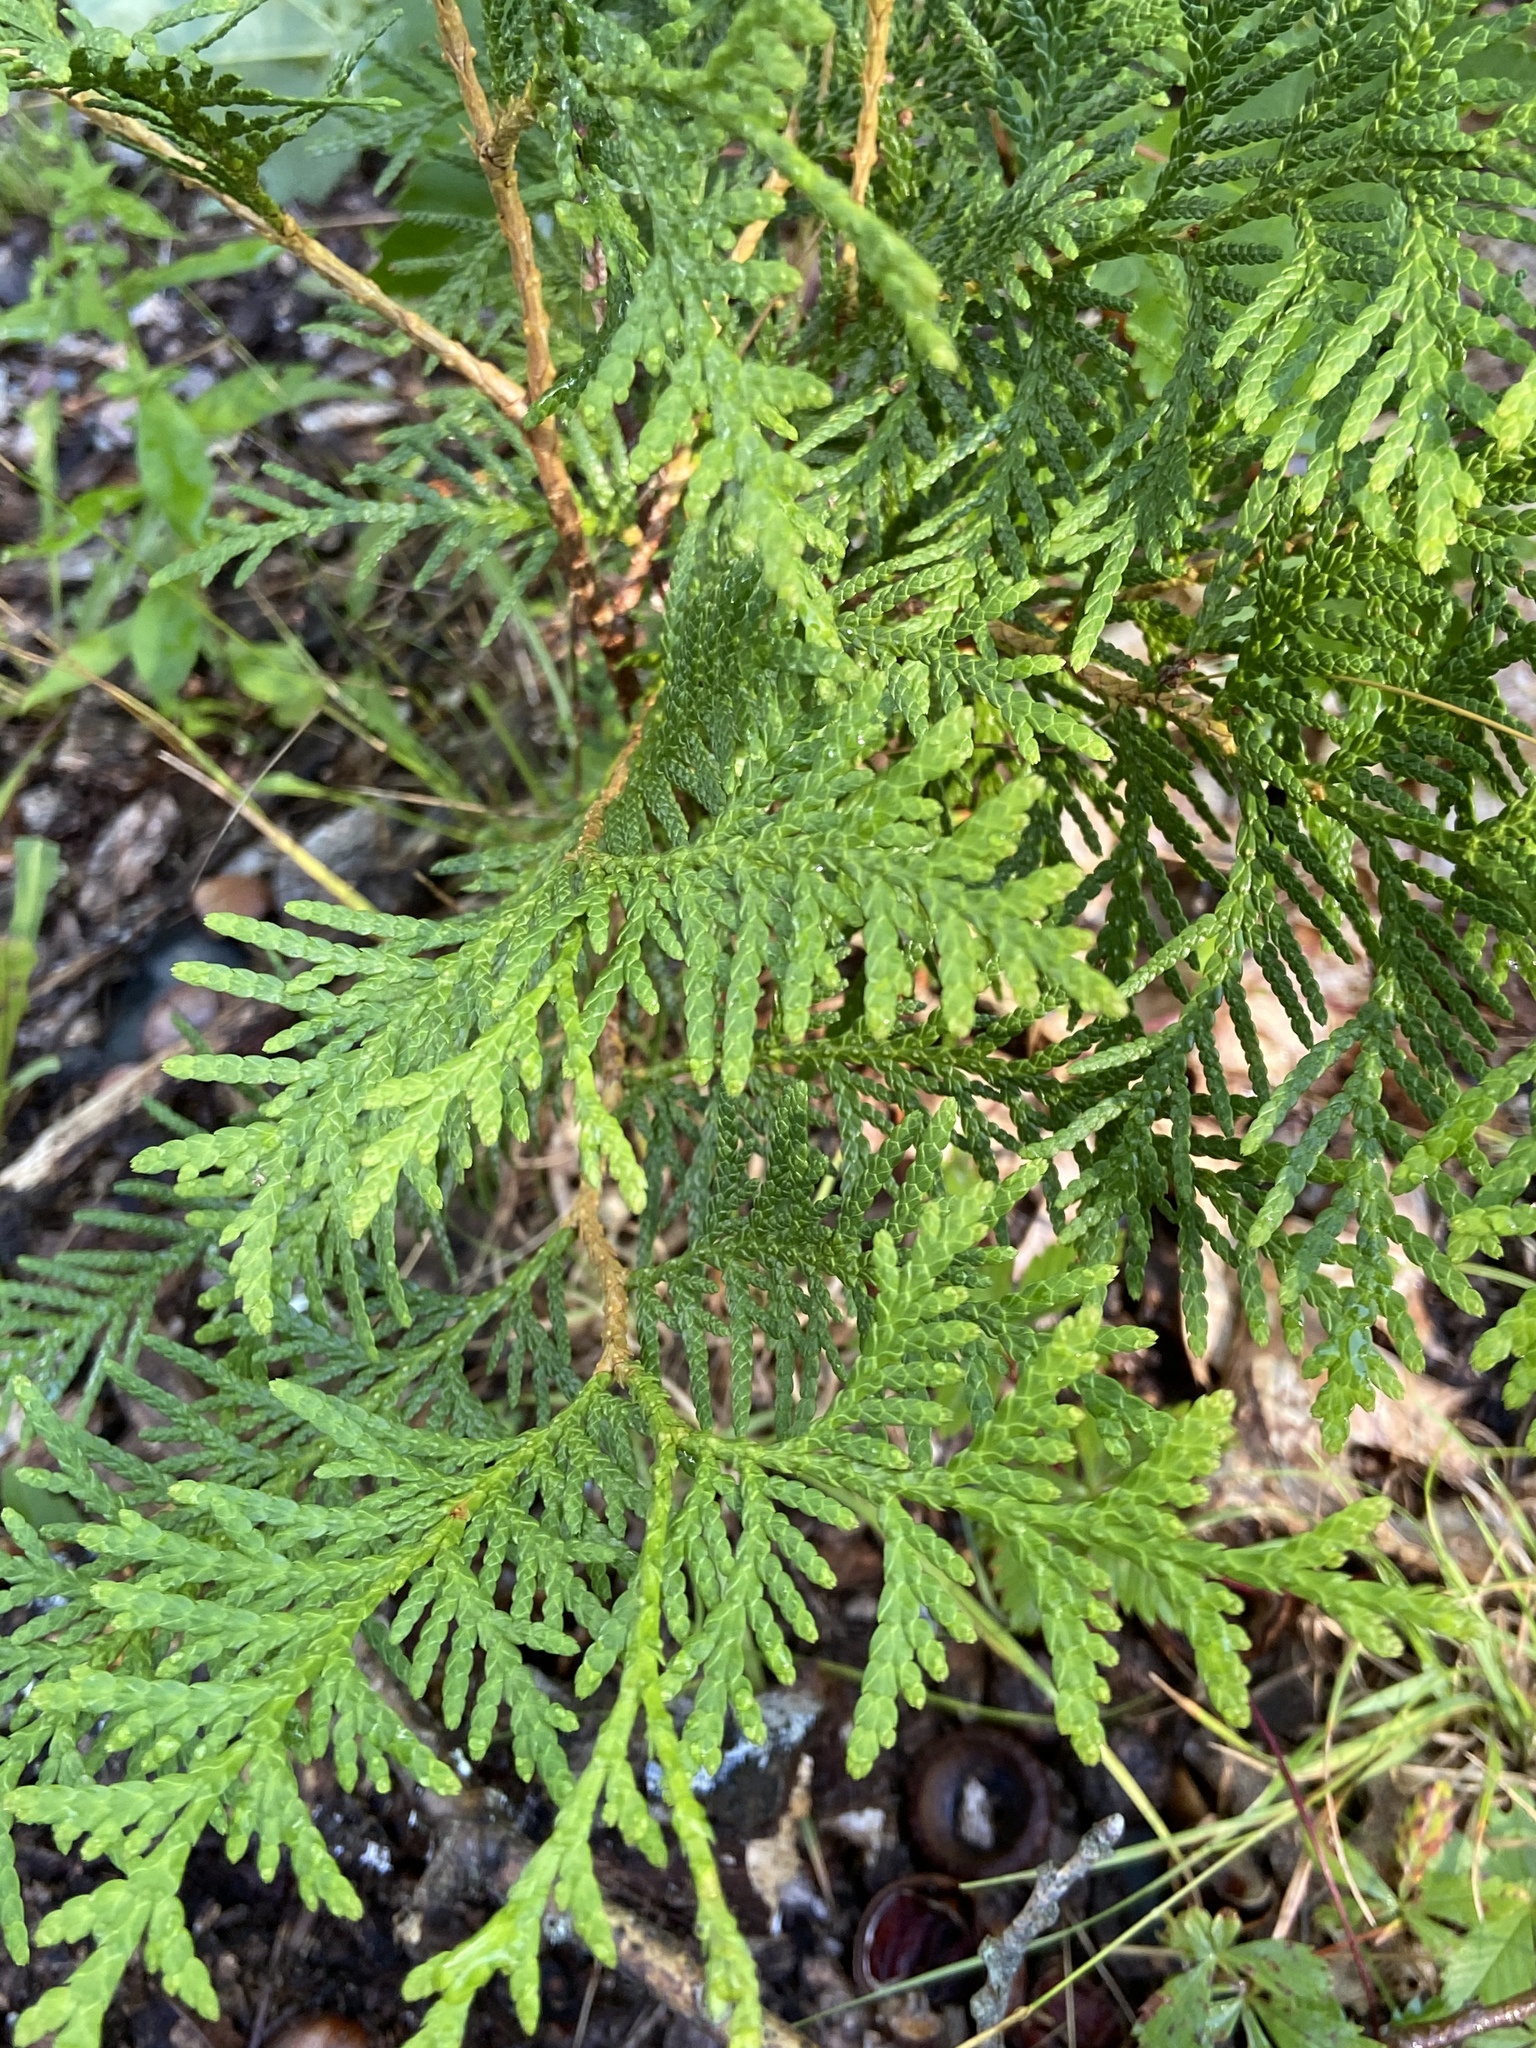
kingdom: Plantae
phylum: Tracheophyta
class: Pinopsida
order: Pinales
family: Cupressaceae
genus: Thuja
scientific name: Thuja occidentalis
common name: Northern white-cedar
